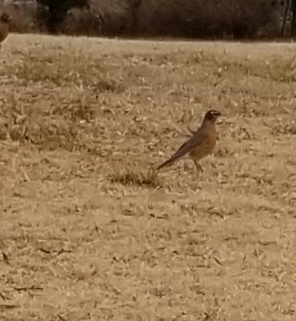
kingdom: Animalia
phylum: Chordata
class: Aves
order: Passeriformes
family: Turdidae
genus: Turdus
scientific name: Turdus migratorius
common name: American robin
